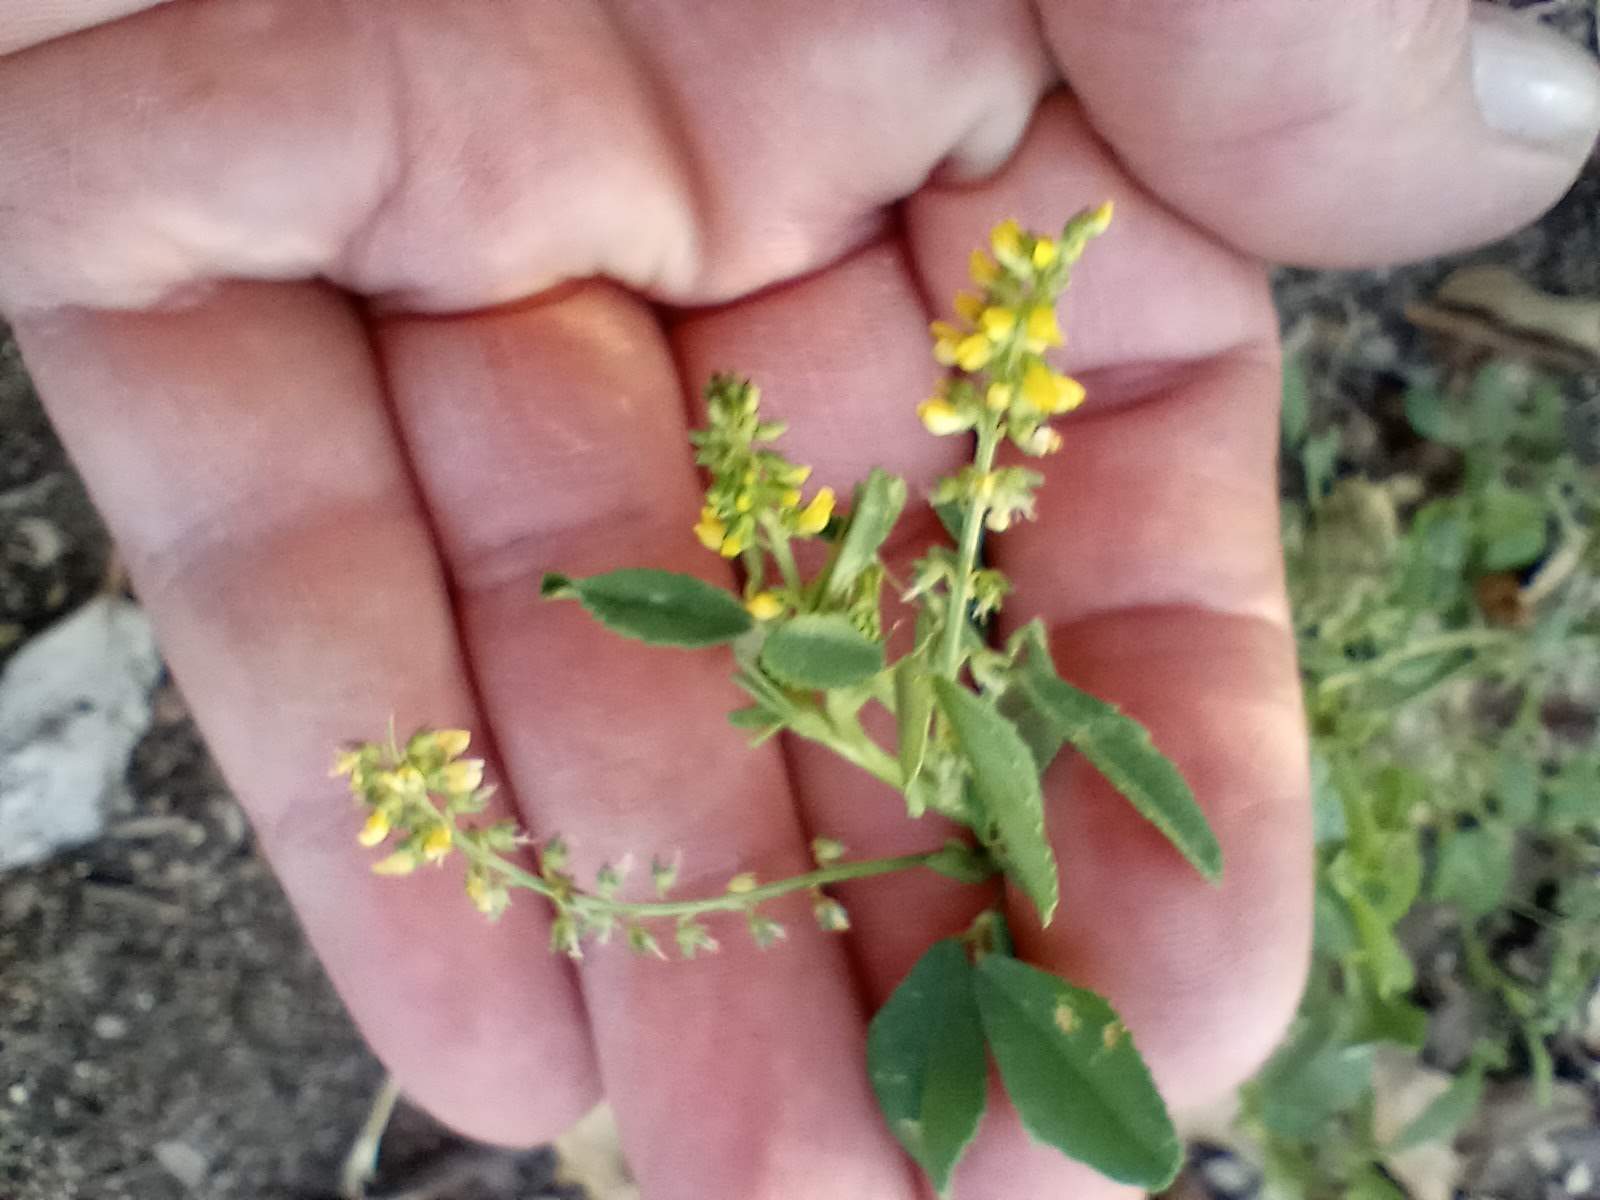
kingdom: Plantae
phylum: Tracheophyta
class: Magnoliopsida
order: Fabales
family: Fabaceae
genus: Melilotus
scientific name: Melilotus indicus
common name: Small melilot
